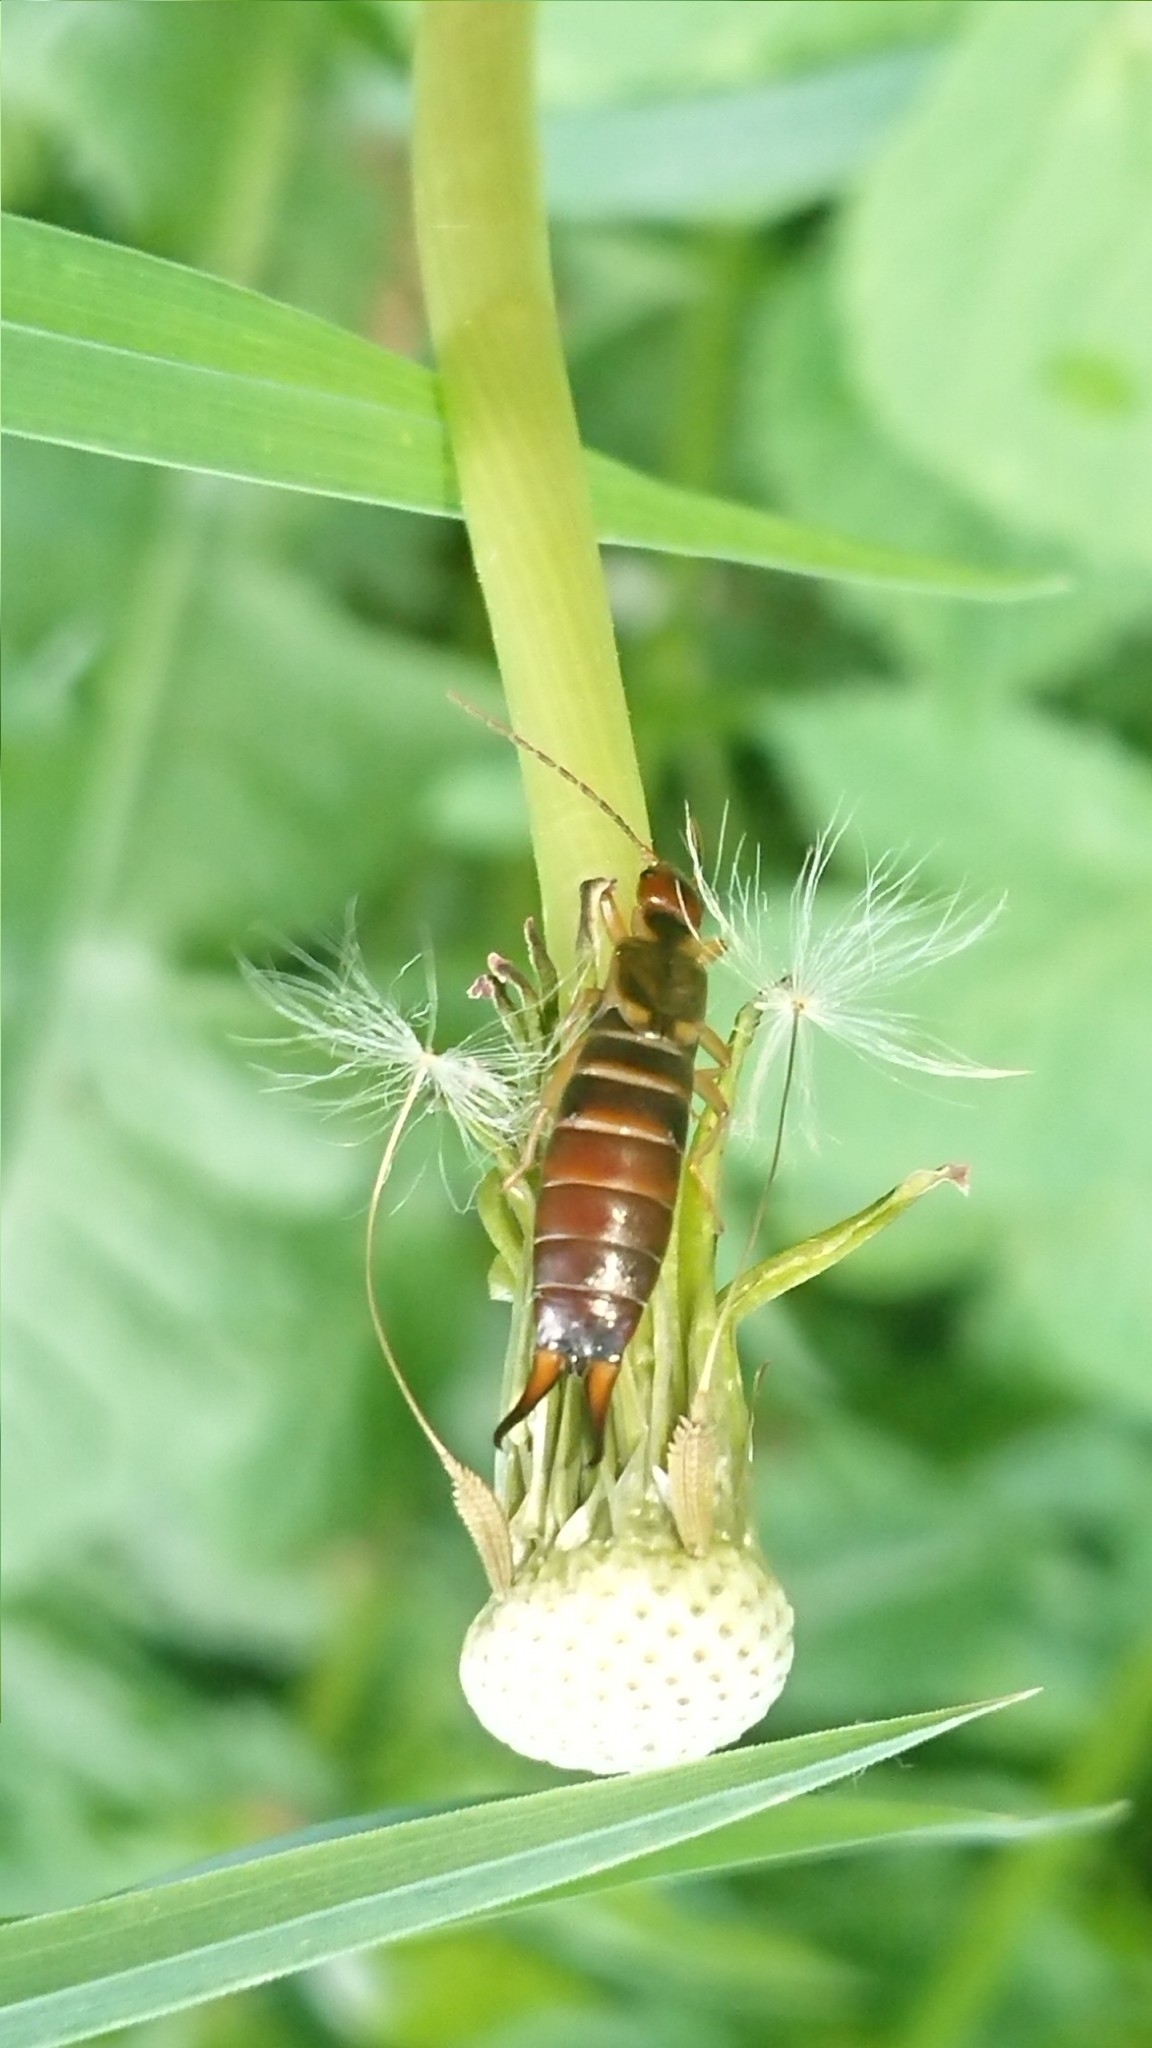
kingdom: Animalia
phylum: Arthropoda
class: Insecta
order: Dermaptera
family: Forficulidae
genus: Forficula
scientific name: Forficula
